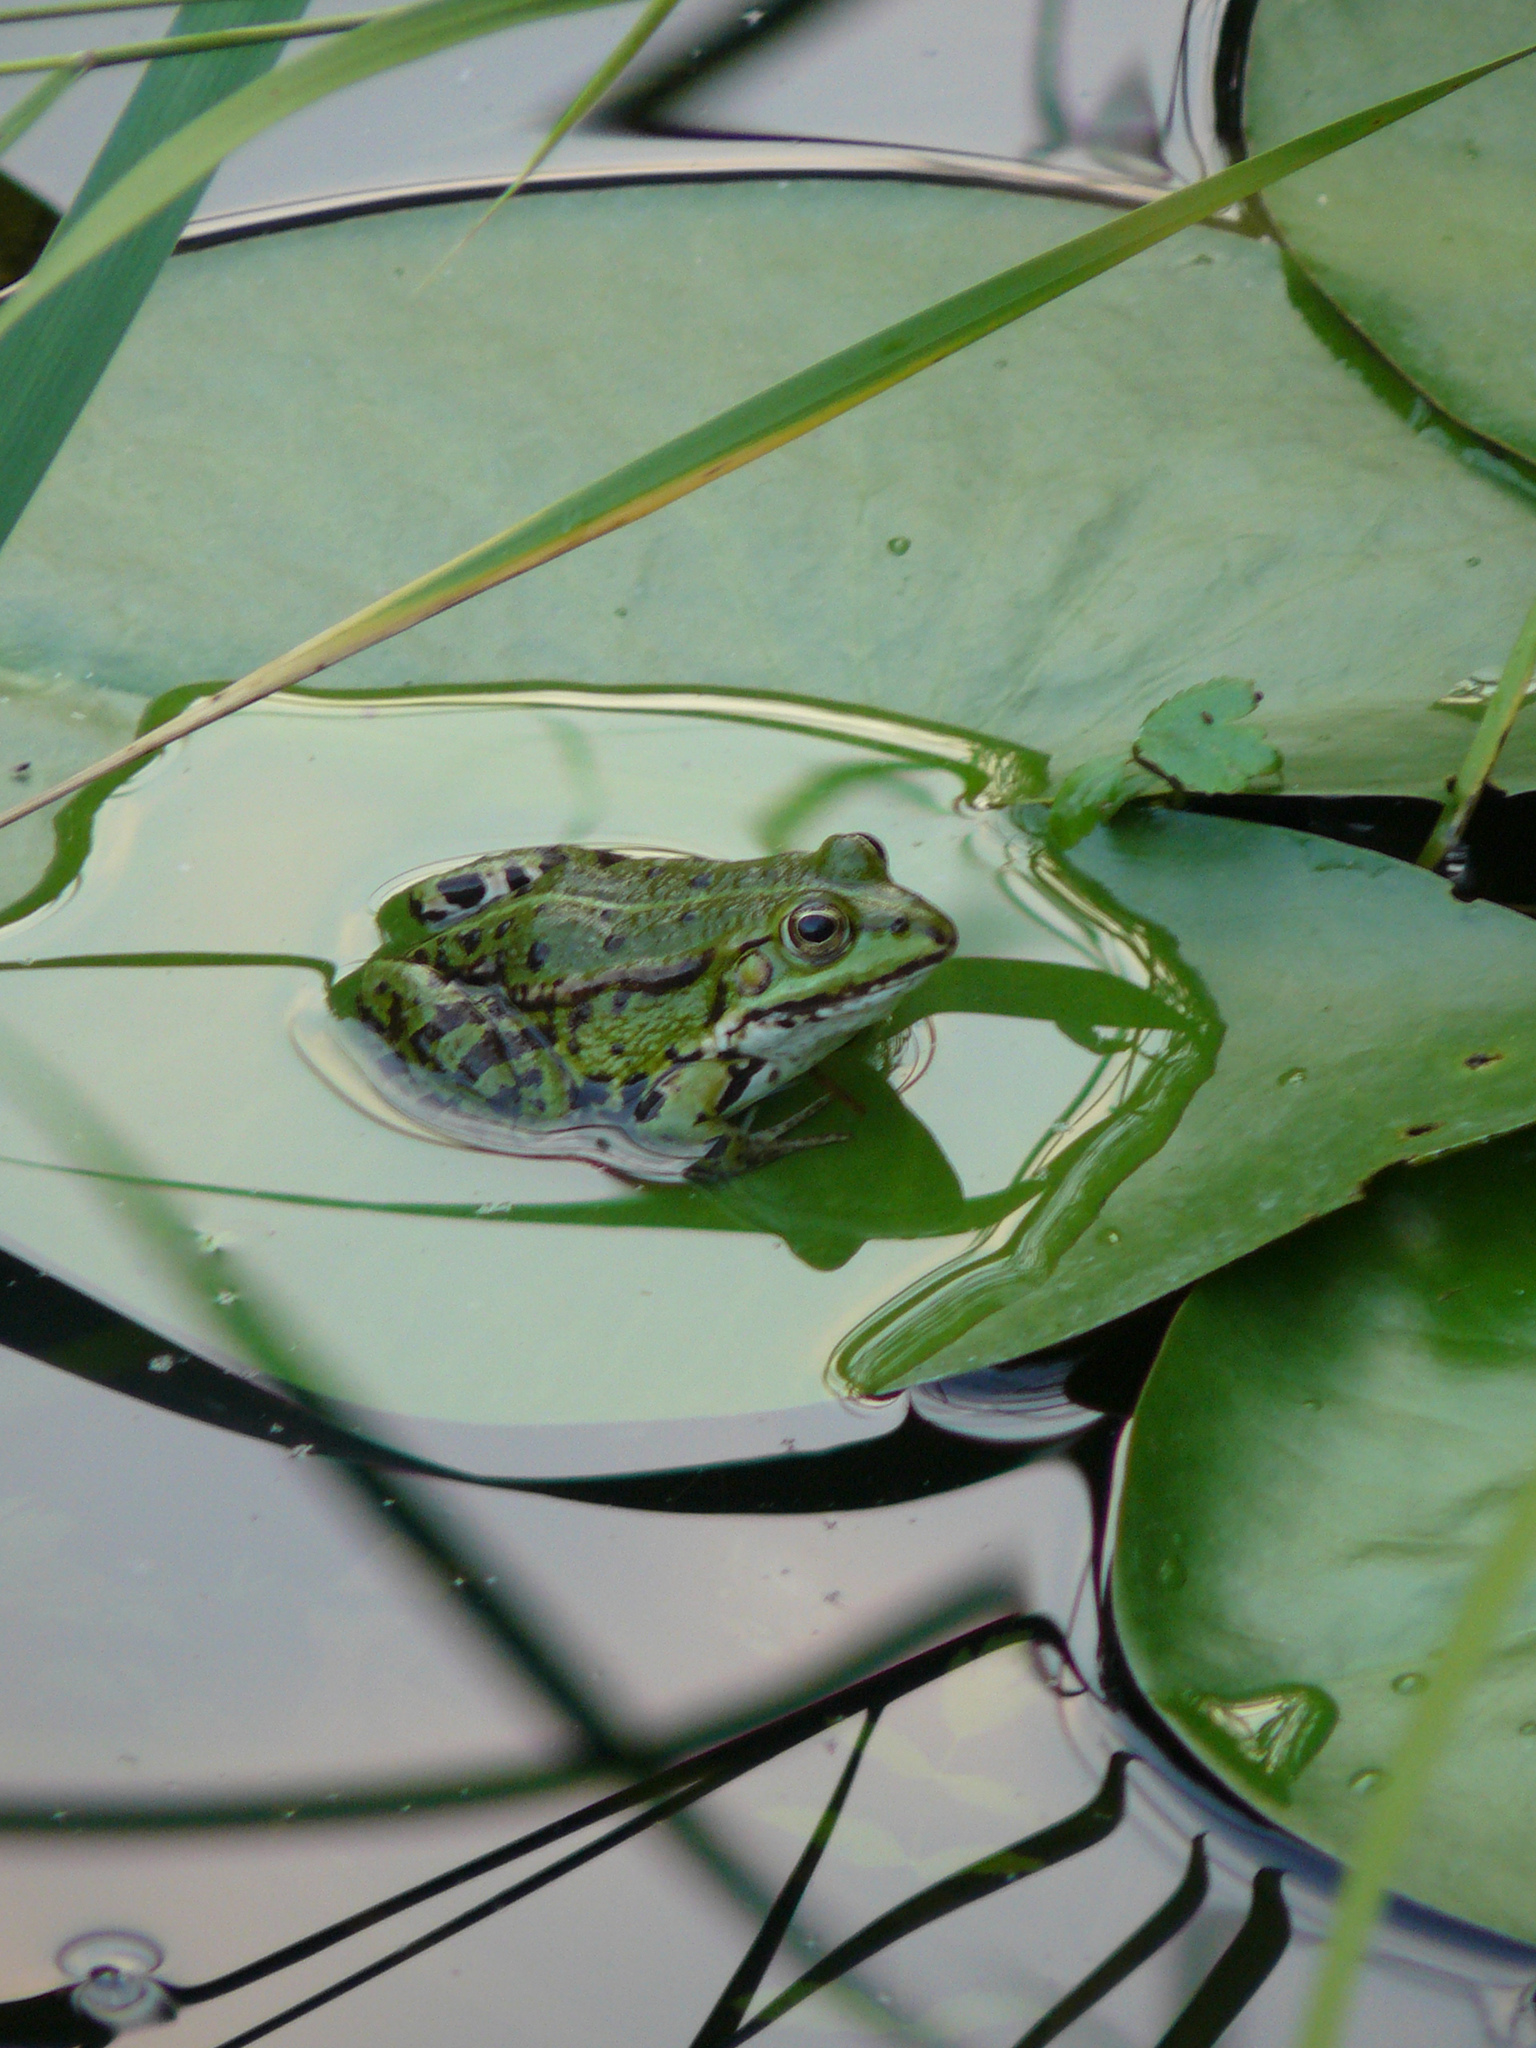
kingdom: Animalia
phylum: Chordata
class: Amphibia
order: Anura
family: Ranidae
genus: Pelophylax
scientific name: Pelophylax lessonae
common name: Pool frog
